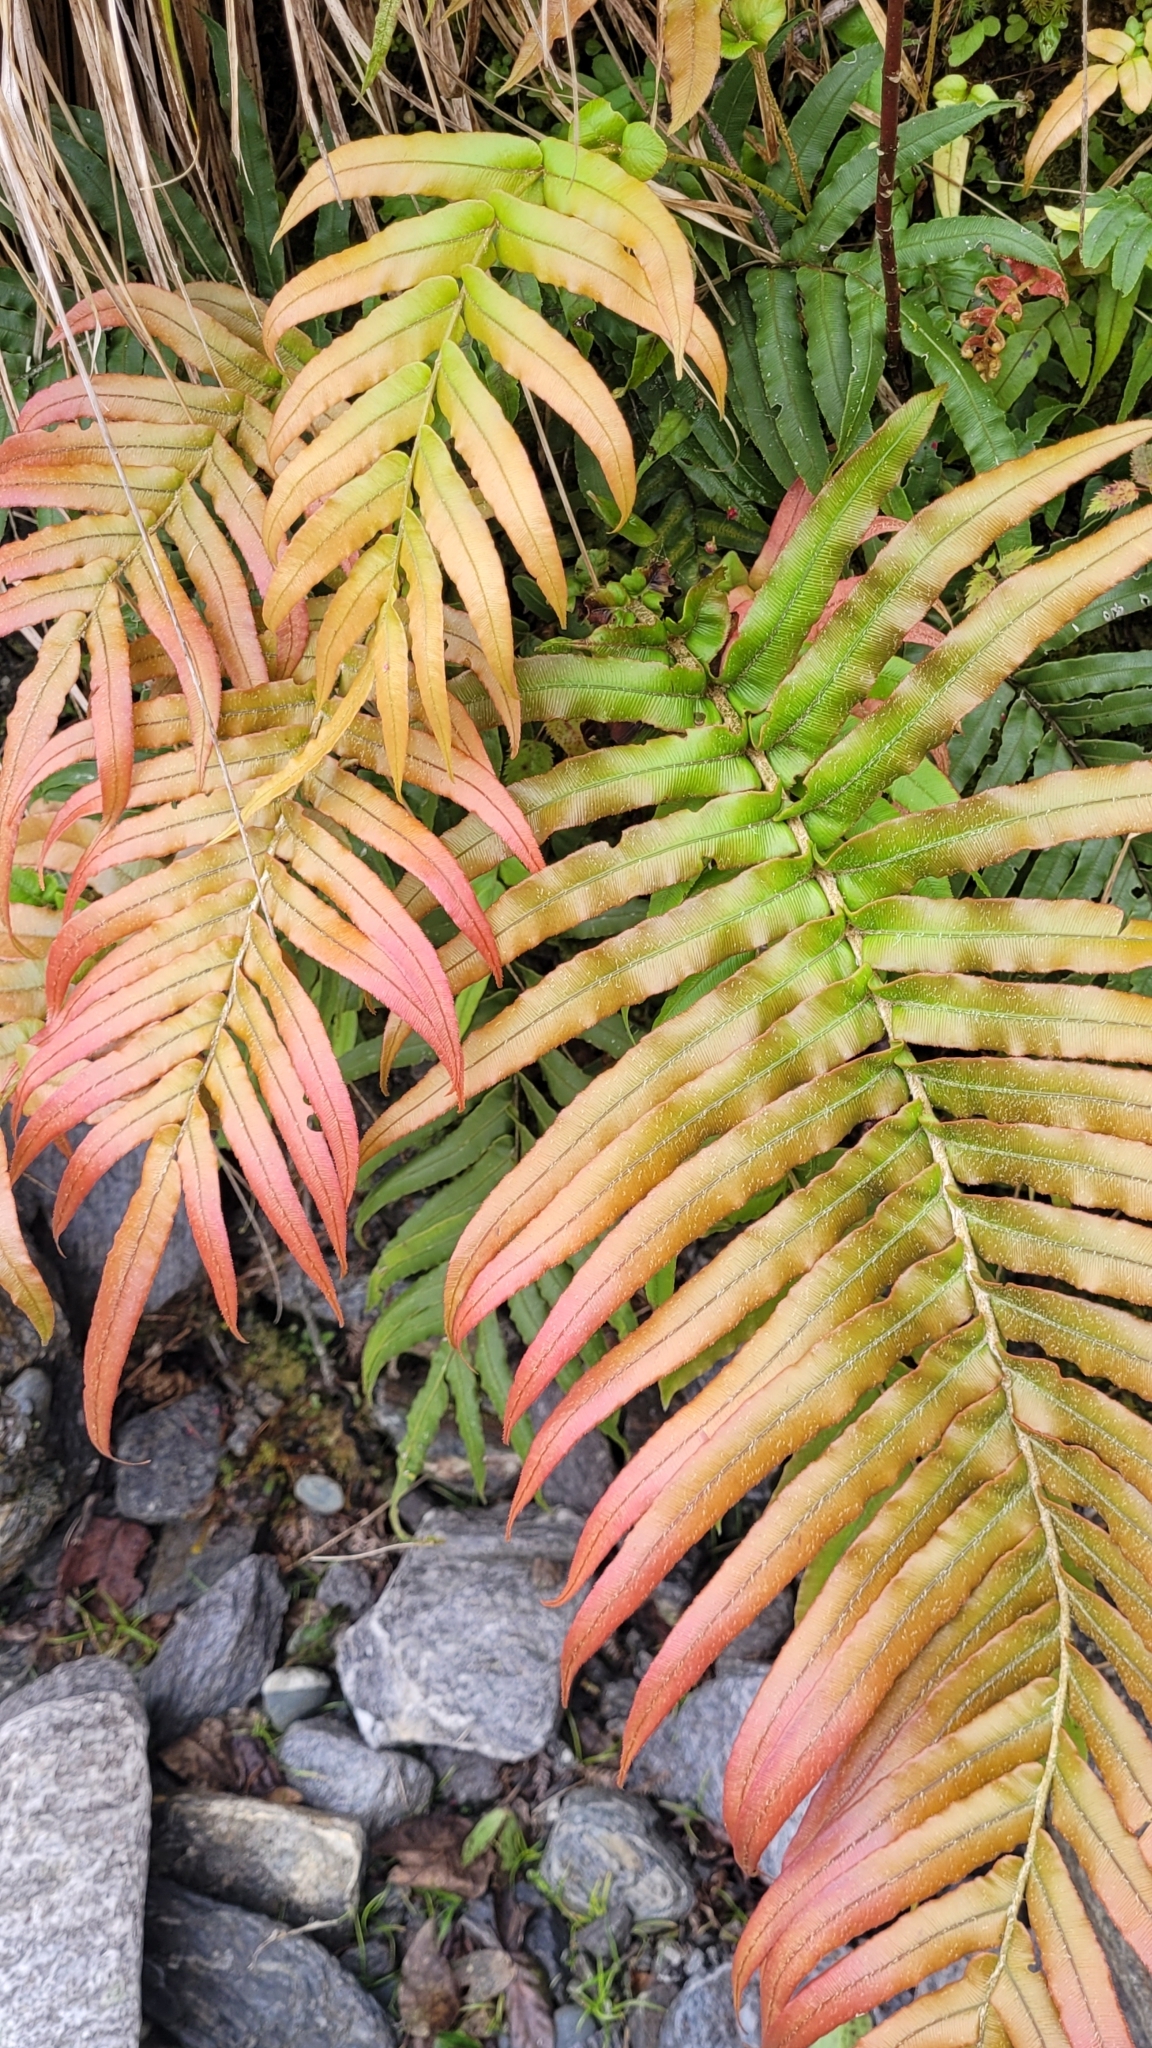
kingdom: Plantae
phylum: Tracheophyta
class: Polypodiopsida
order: Polypodiales
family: Blechnaceae
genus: Parablechnum
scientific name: Parablechnum novae-zelandiae
